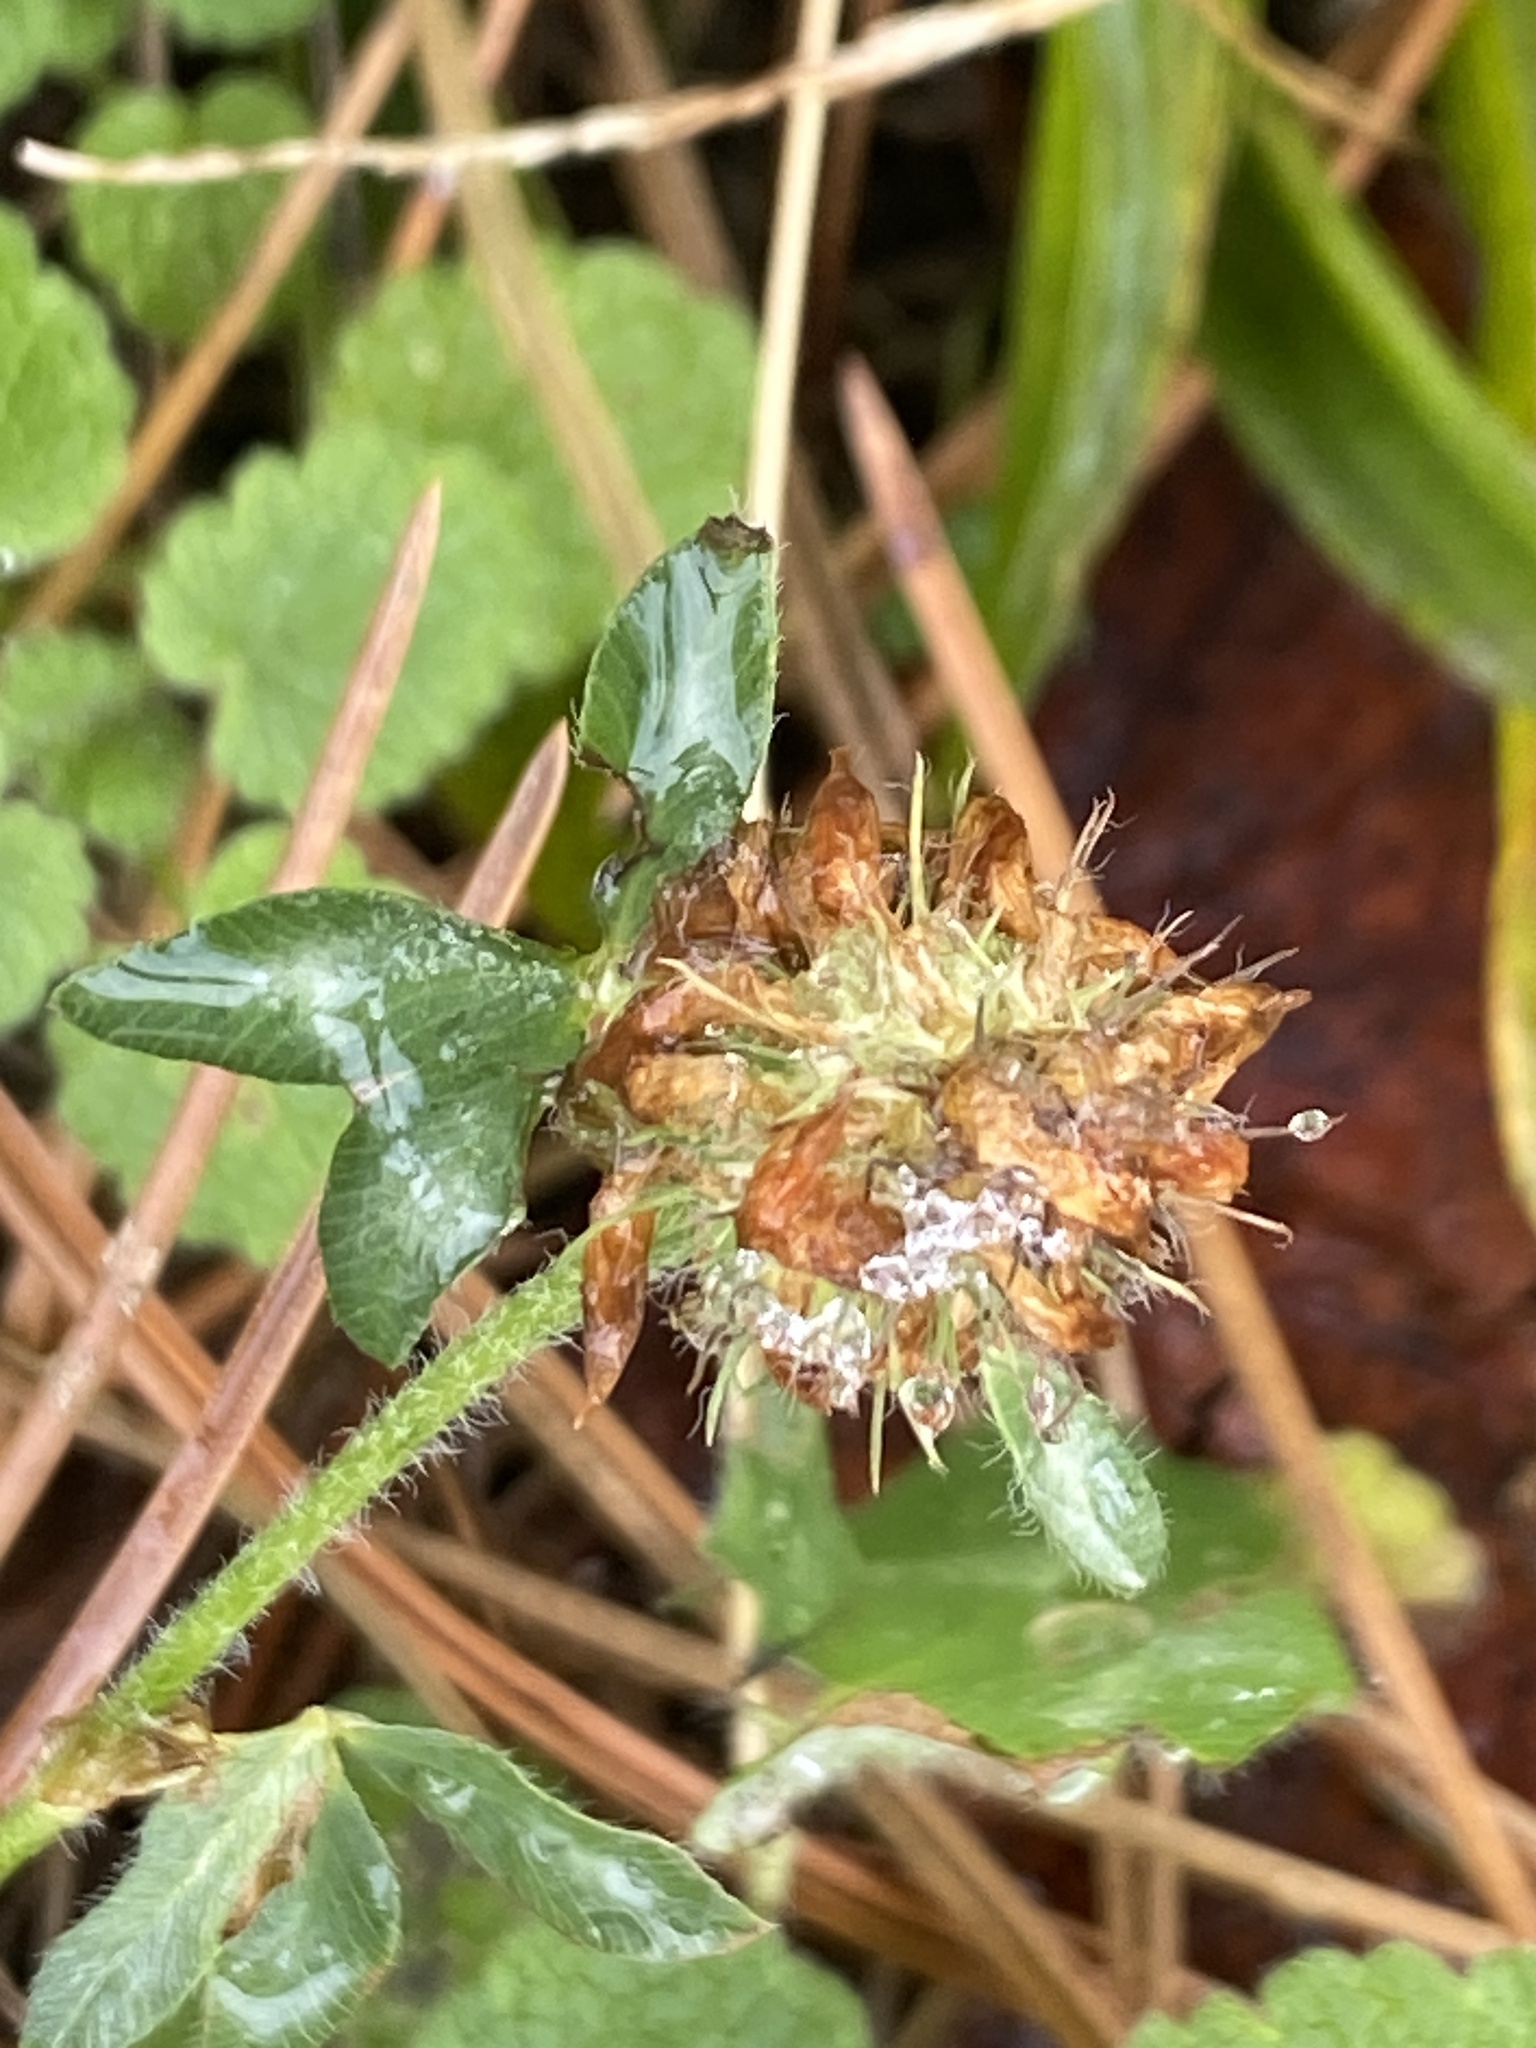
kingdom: Plantae
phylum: Tracheophyta
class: Magnoliopsida
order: Fabales
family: Fabaceae
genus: Trifolium
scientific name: Trifolium pratense
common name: Red clover
